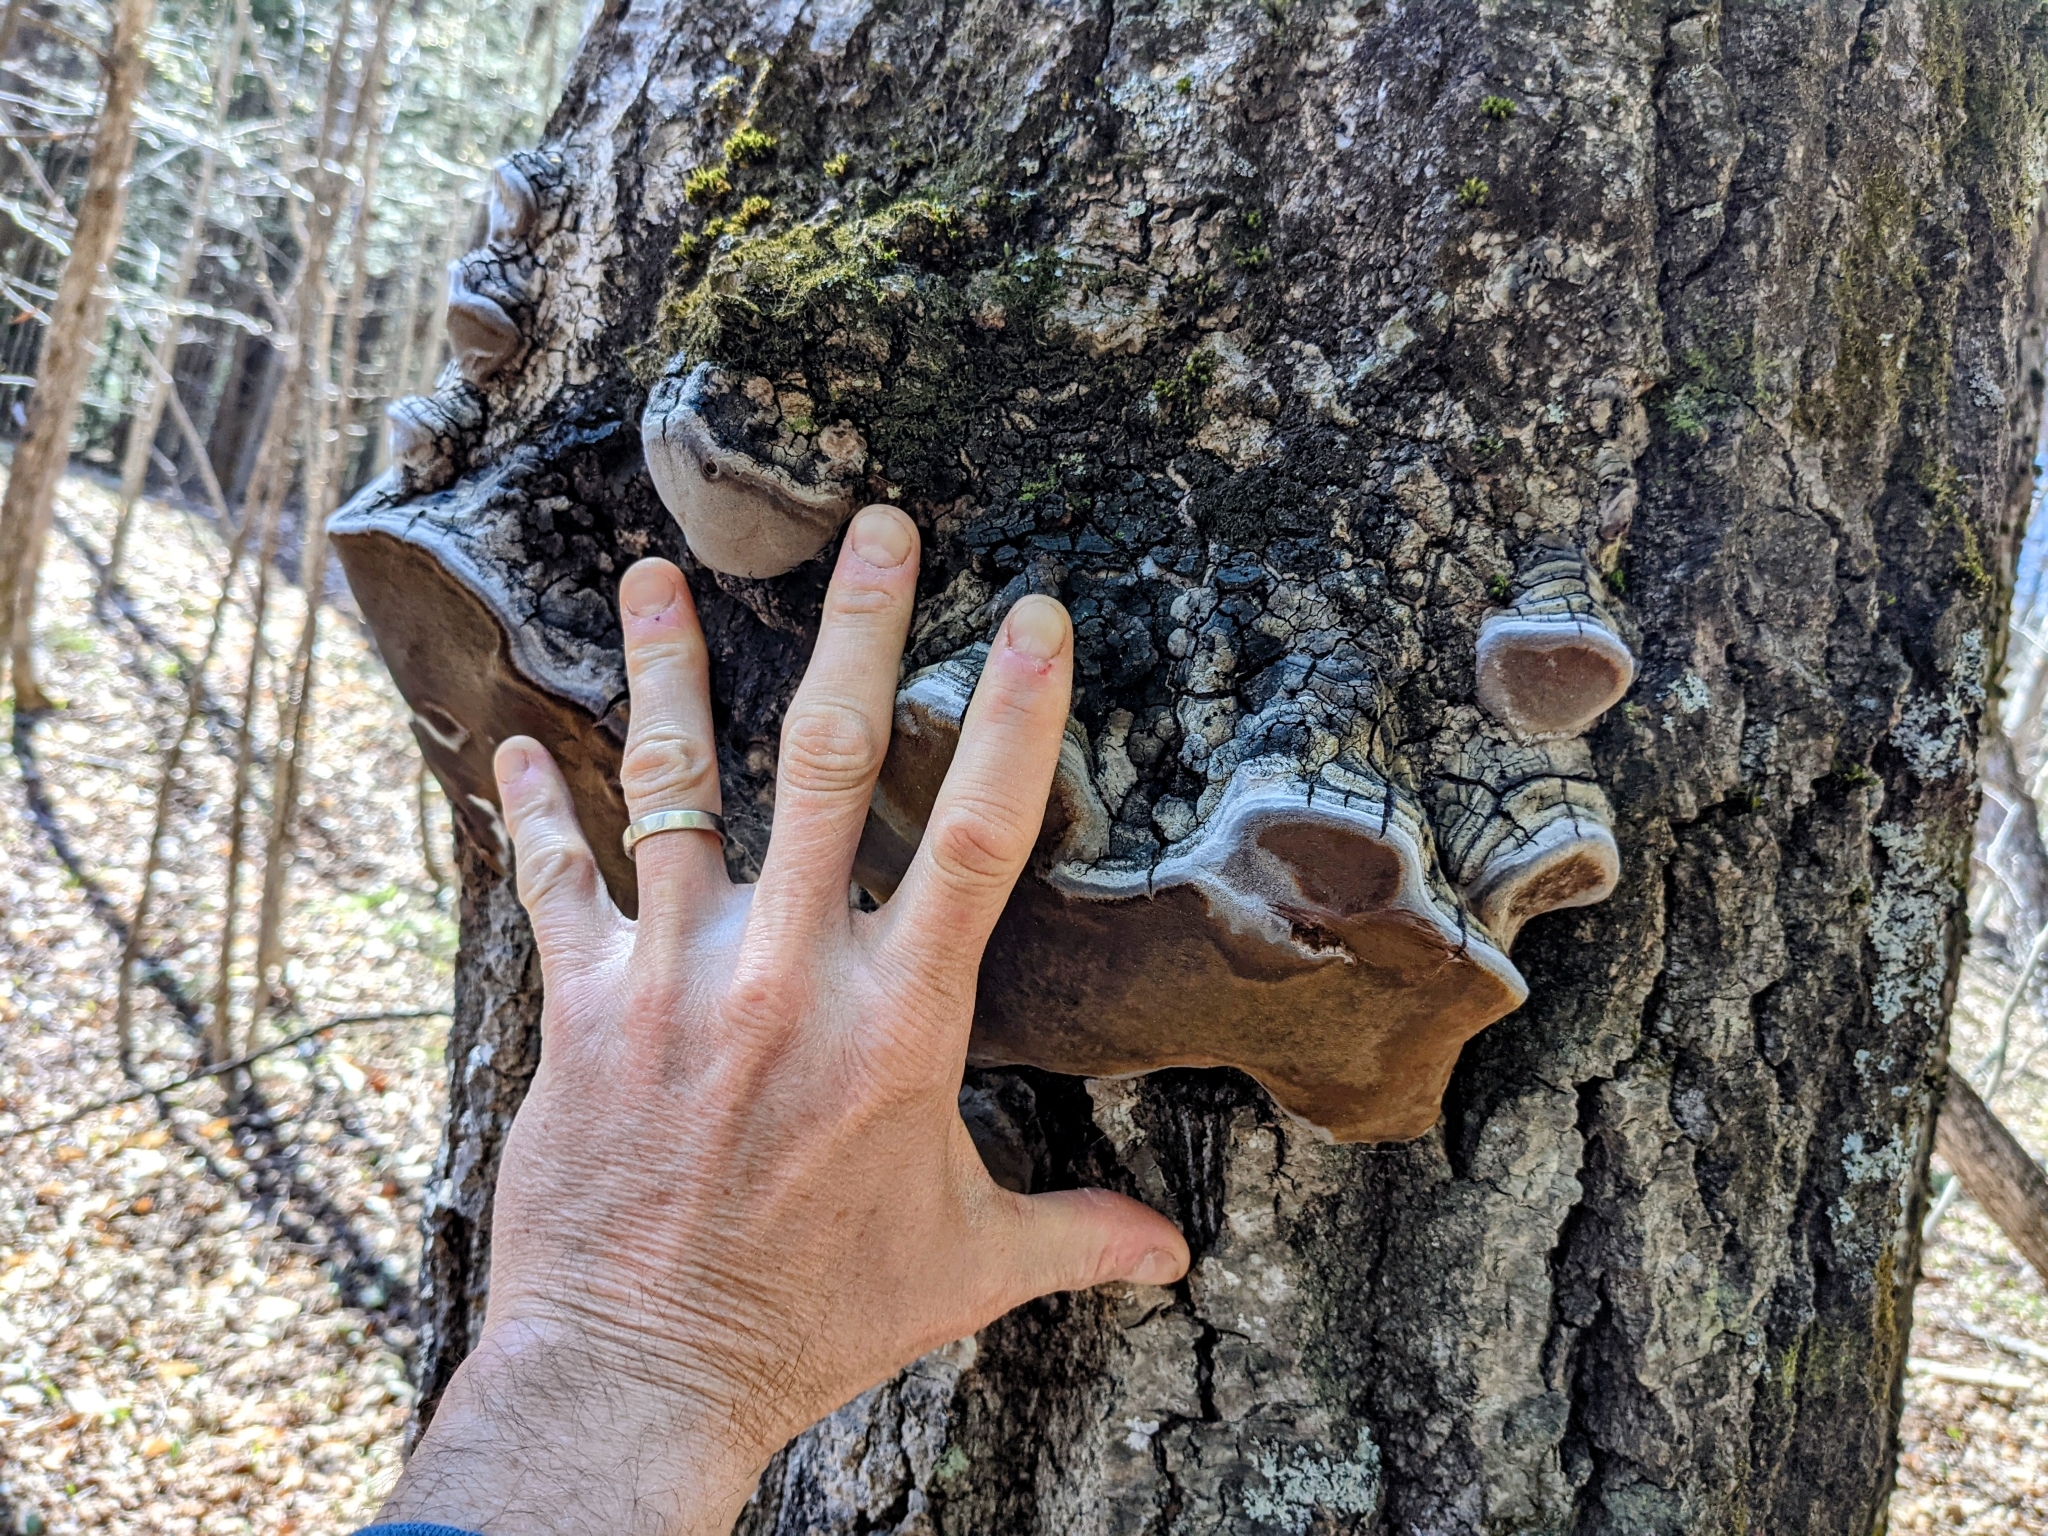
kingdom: Fungi
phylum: Basidiomycota
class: Agaricomycetes
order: Hymenochaetales
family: Hymenochaetaceae
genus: Phellinus
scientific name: Phellinus tremulae
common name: Aspen bracket
